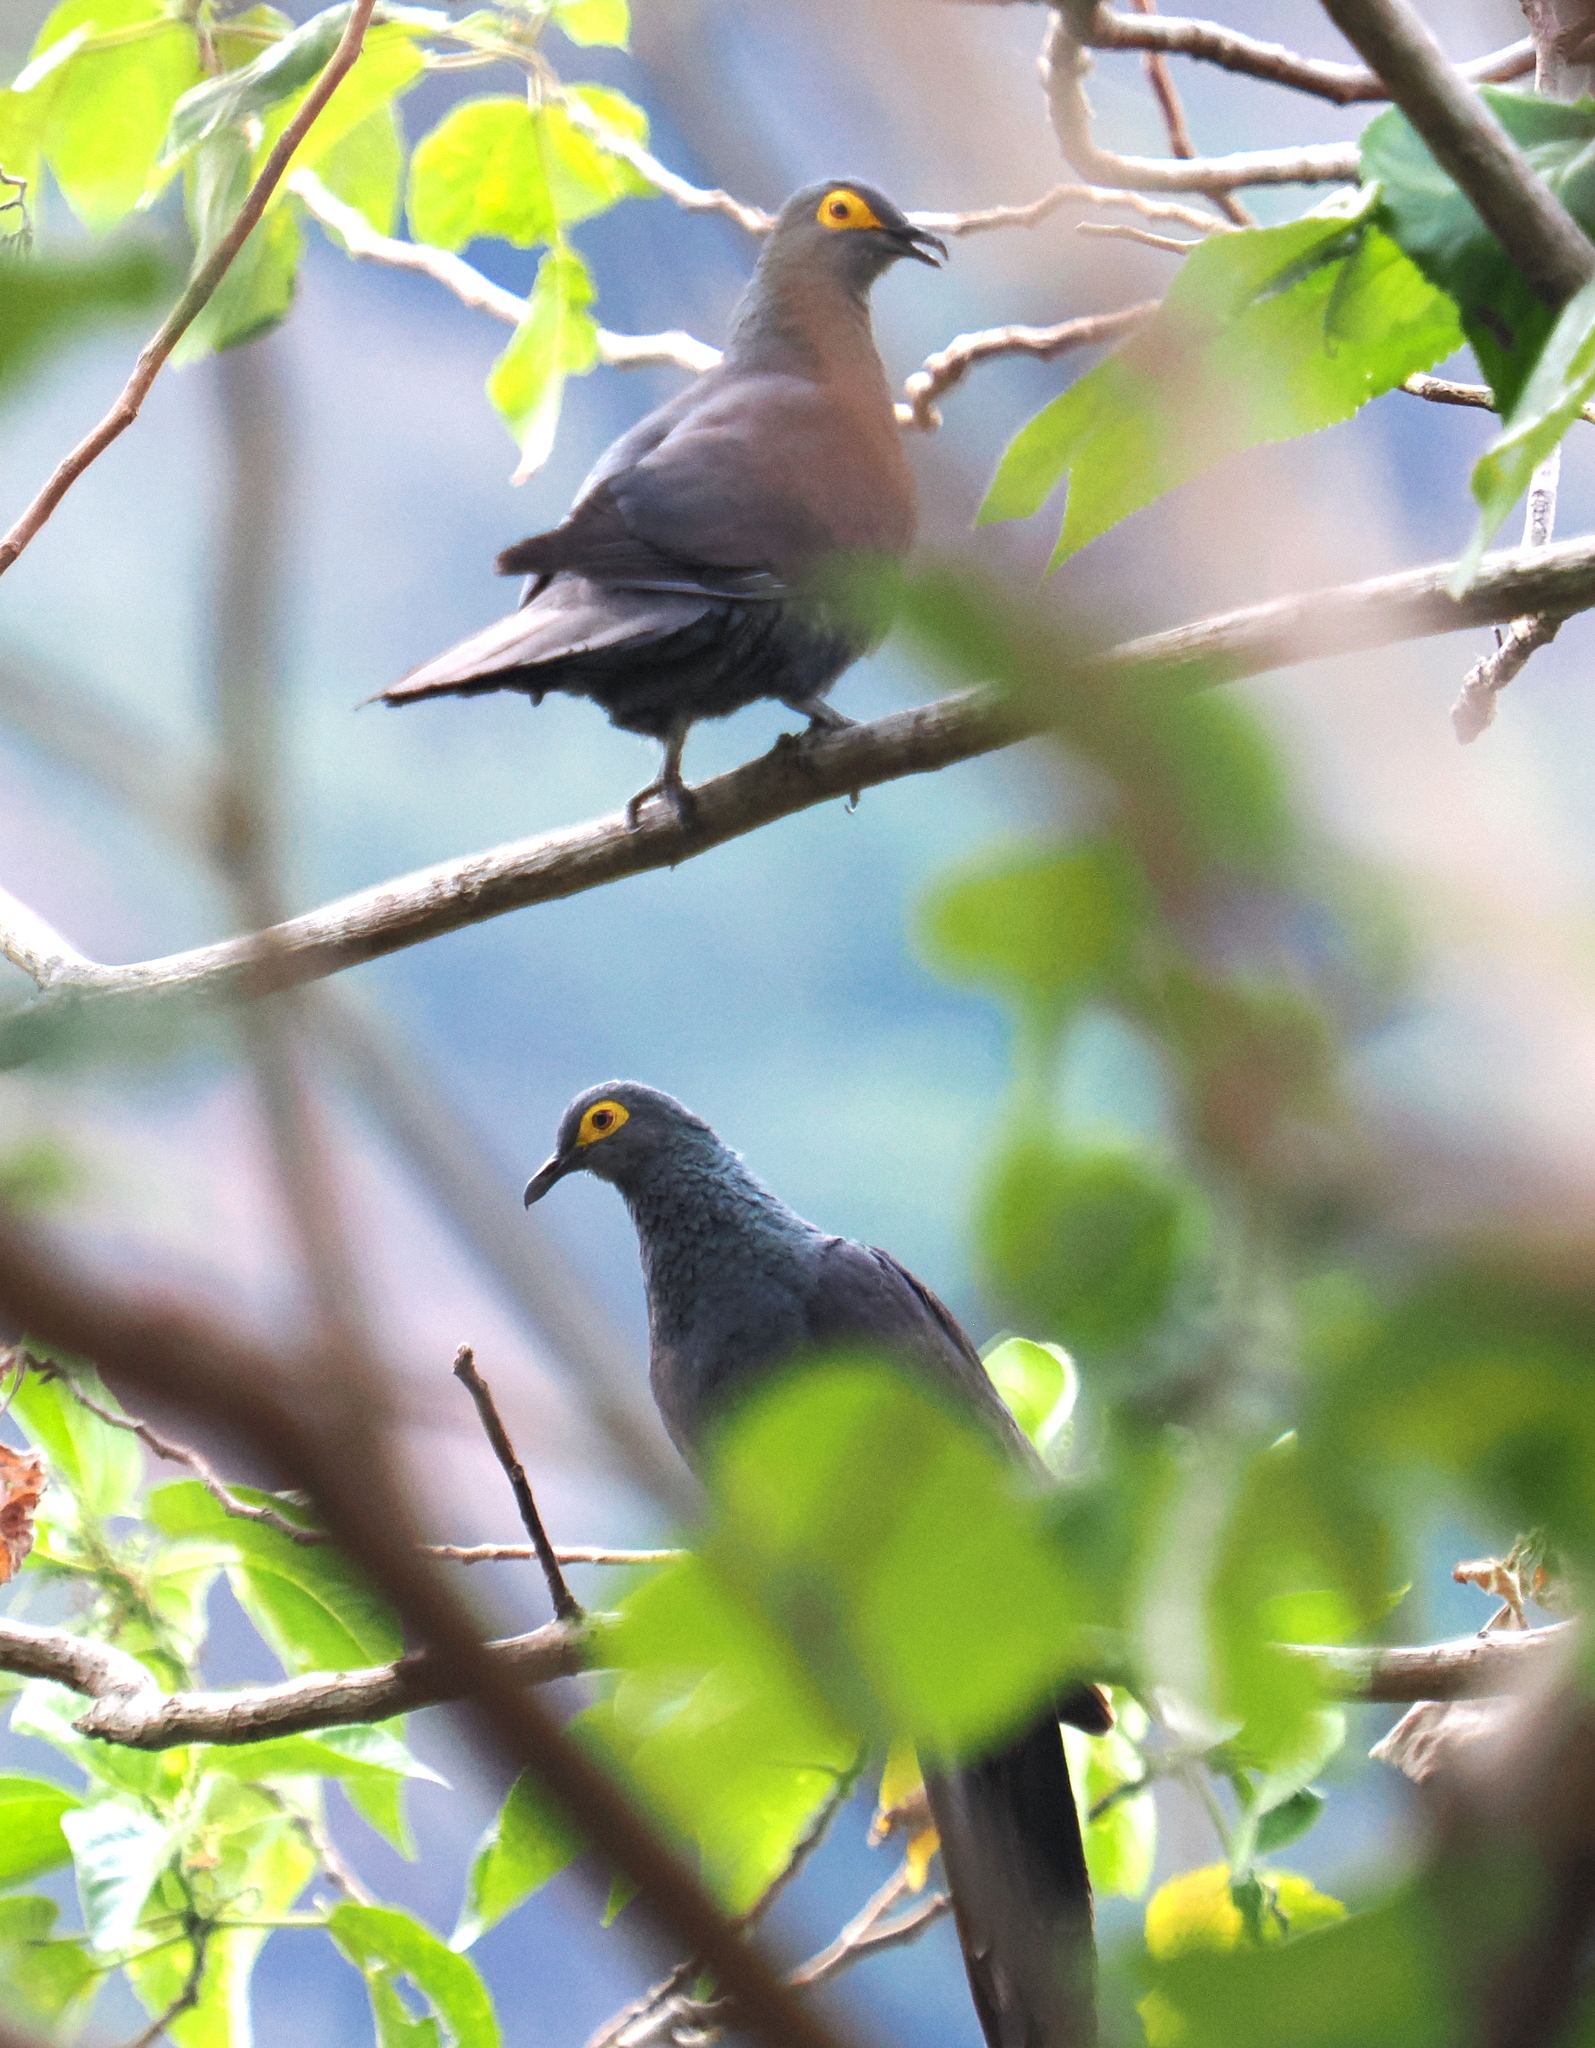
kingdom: Animalia
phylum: Chordata
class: Aves
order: Columbiformes
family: Columbidae
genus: Turacoena
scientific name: Turacoena modesta
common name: Black cuckoo-dove
